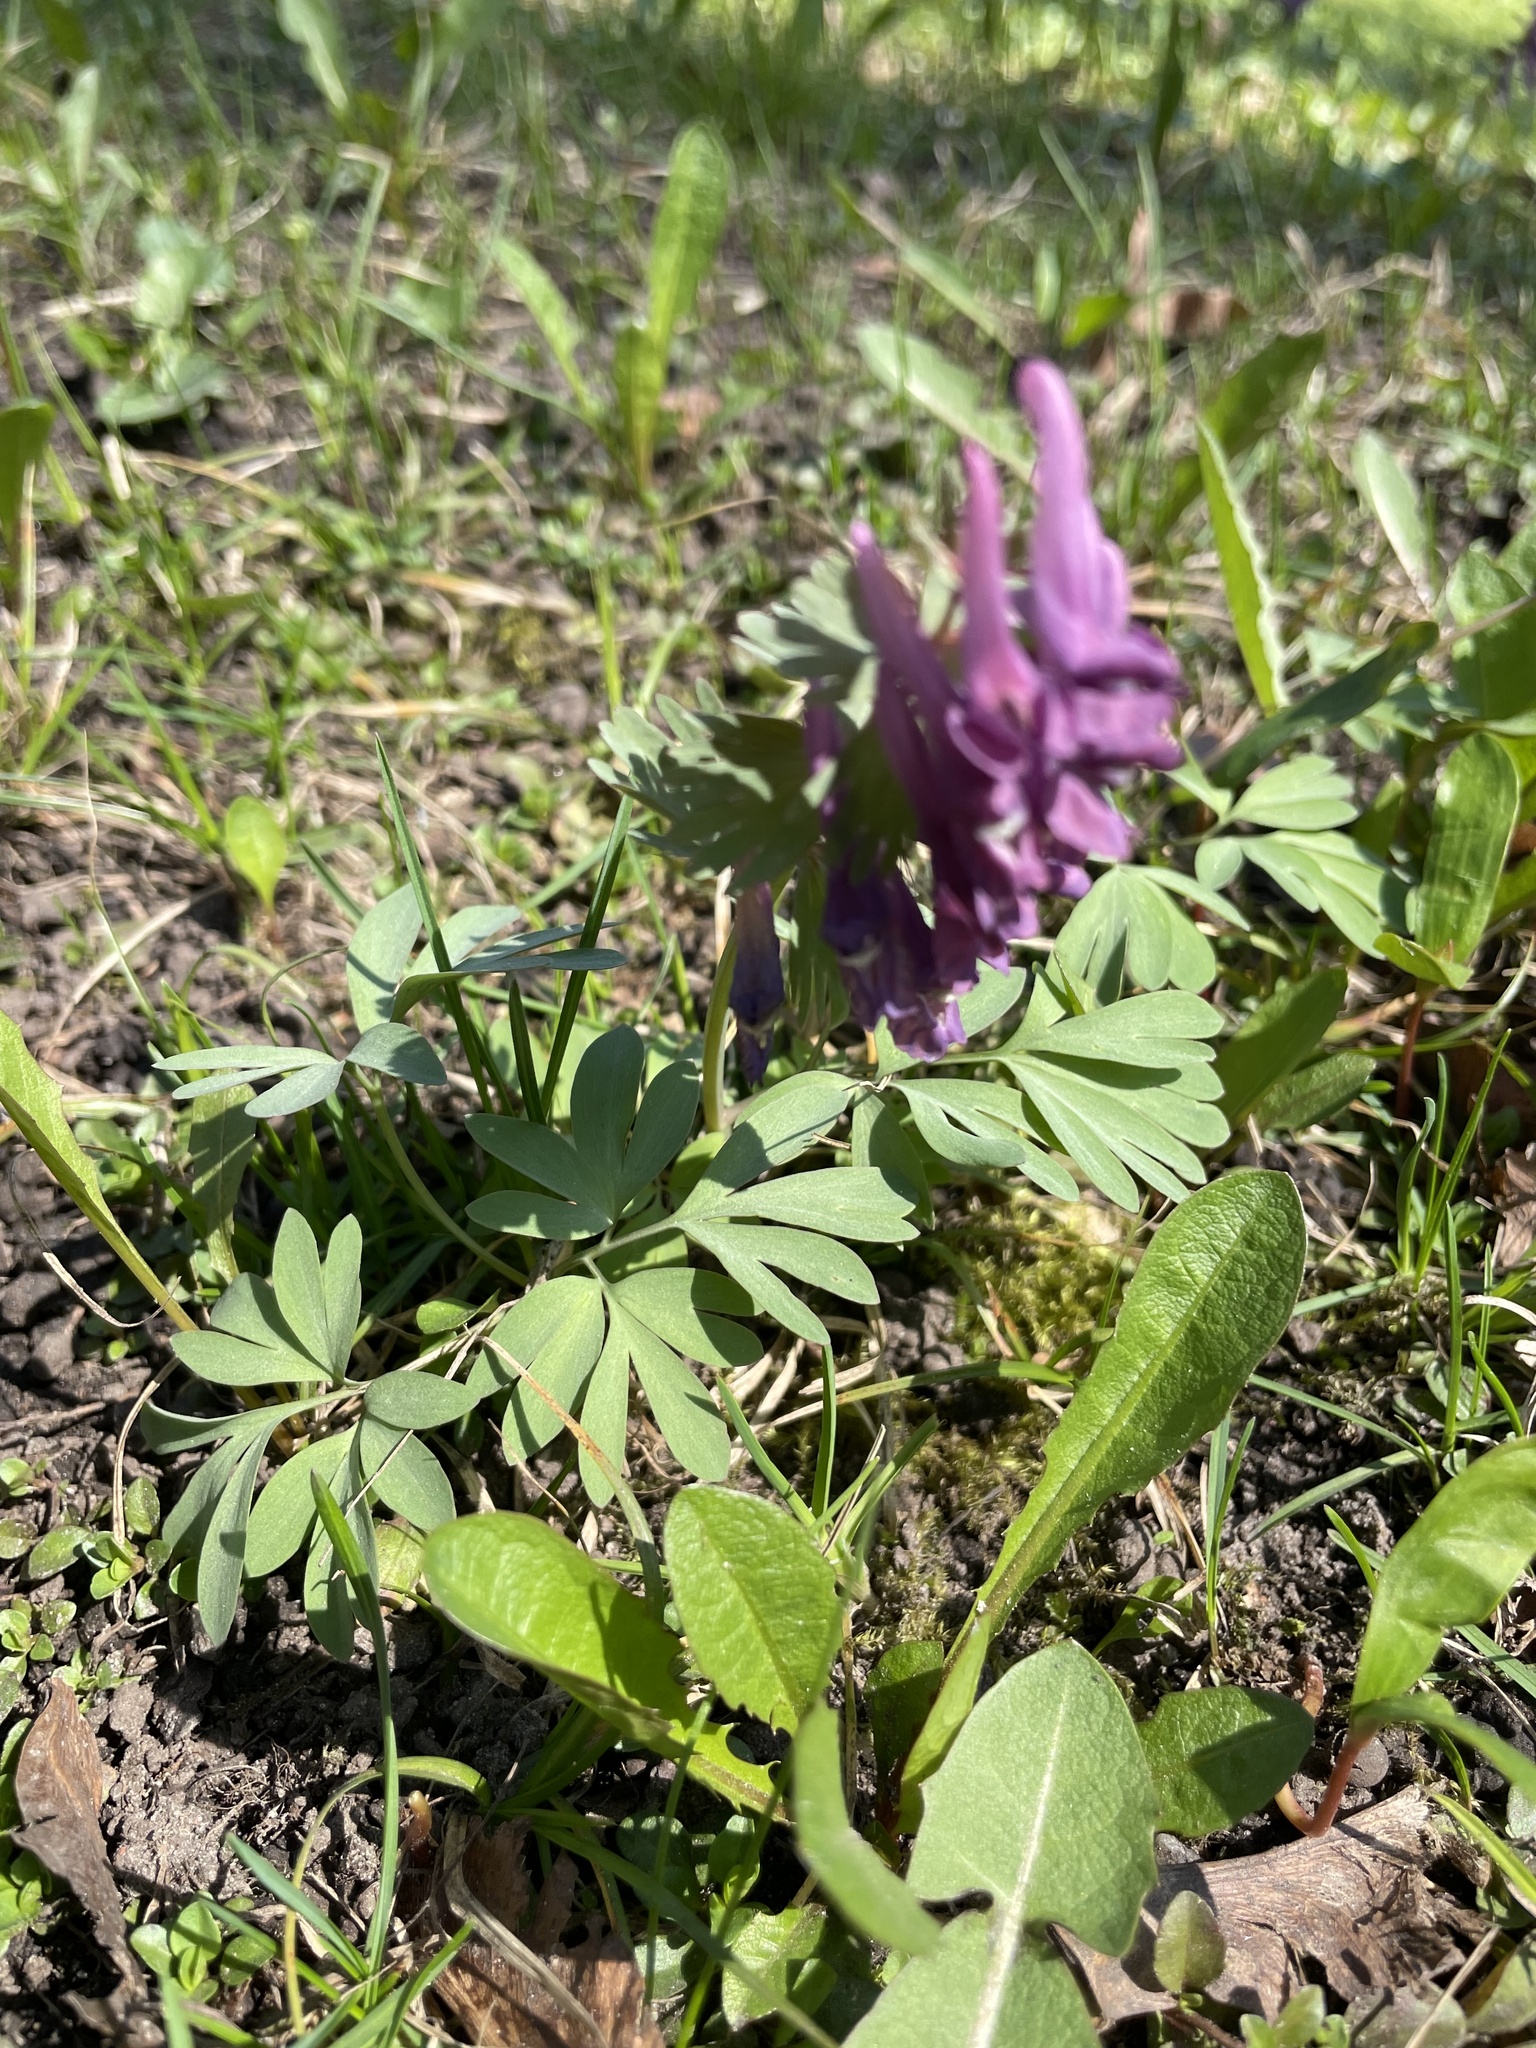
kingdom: Plantae
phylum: Tracheophyta
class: Magnoliopsida
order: Ranunculales
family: Papaveraceae
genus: Corydalis
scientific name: Corydalis solida
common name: Bird-in-a-bush
